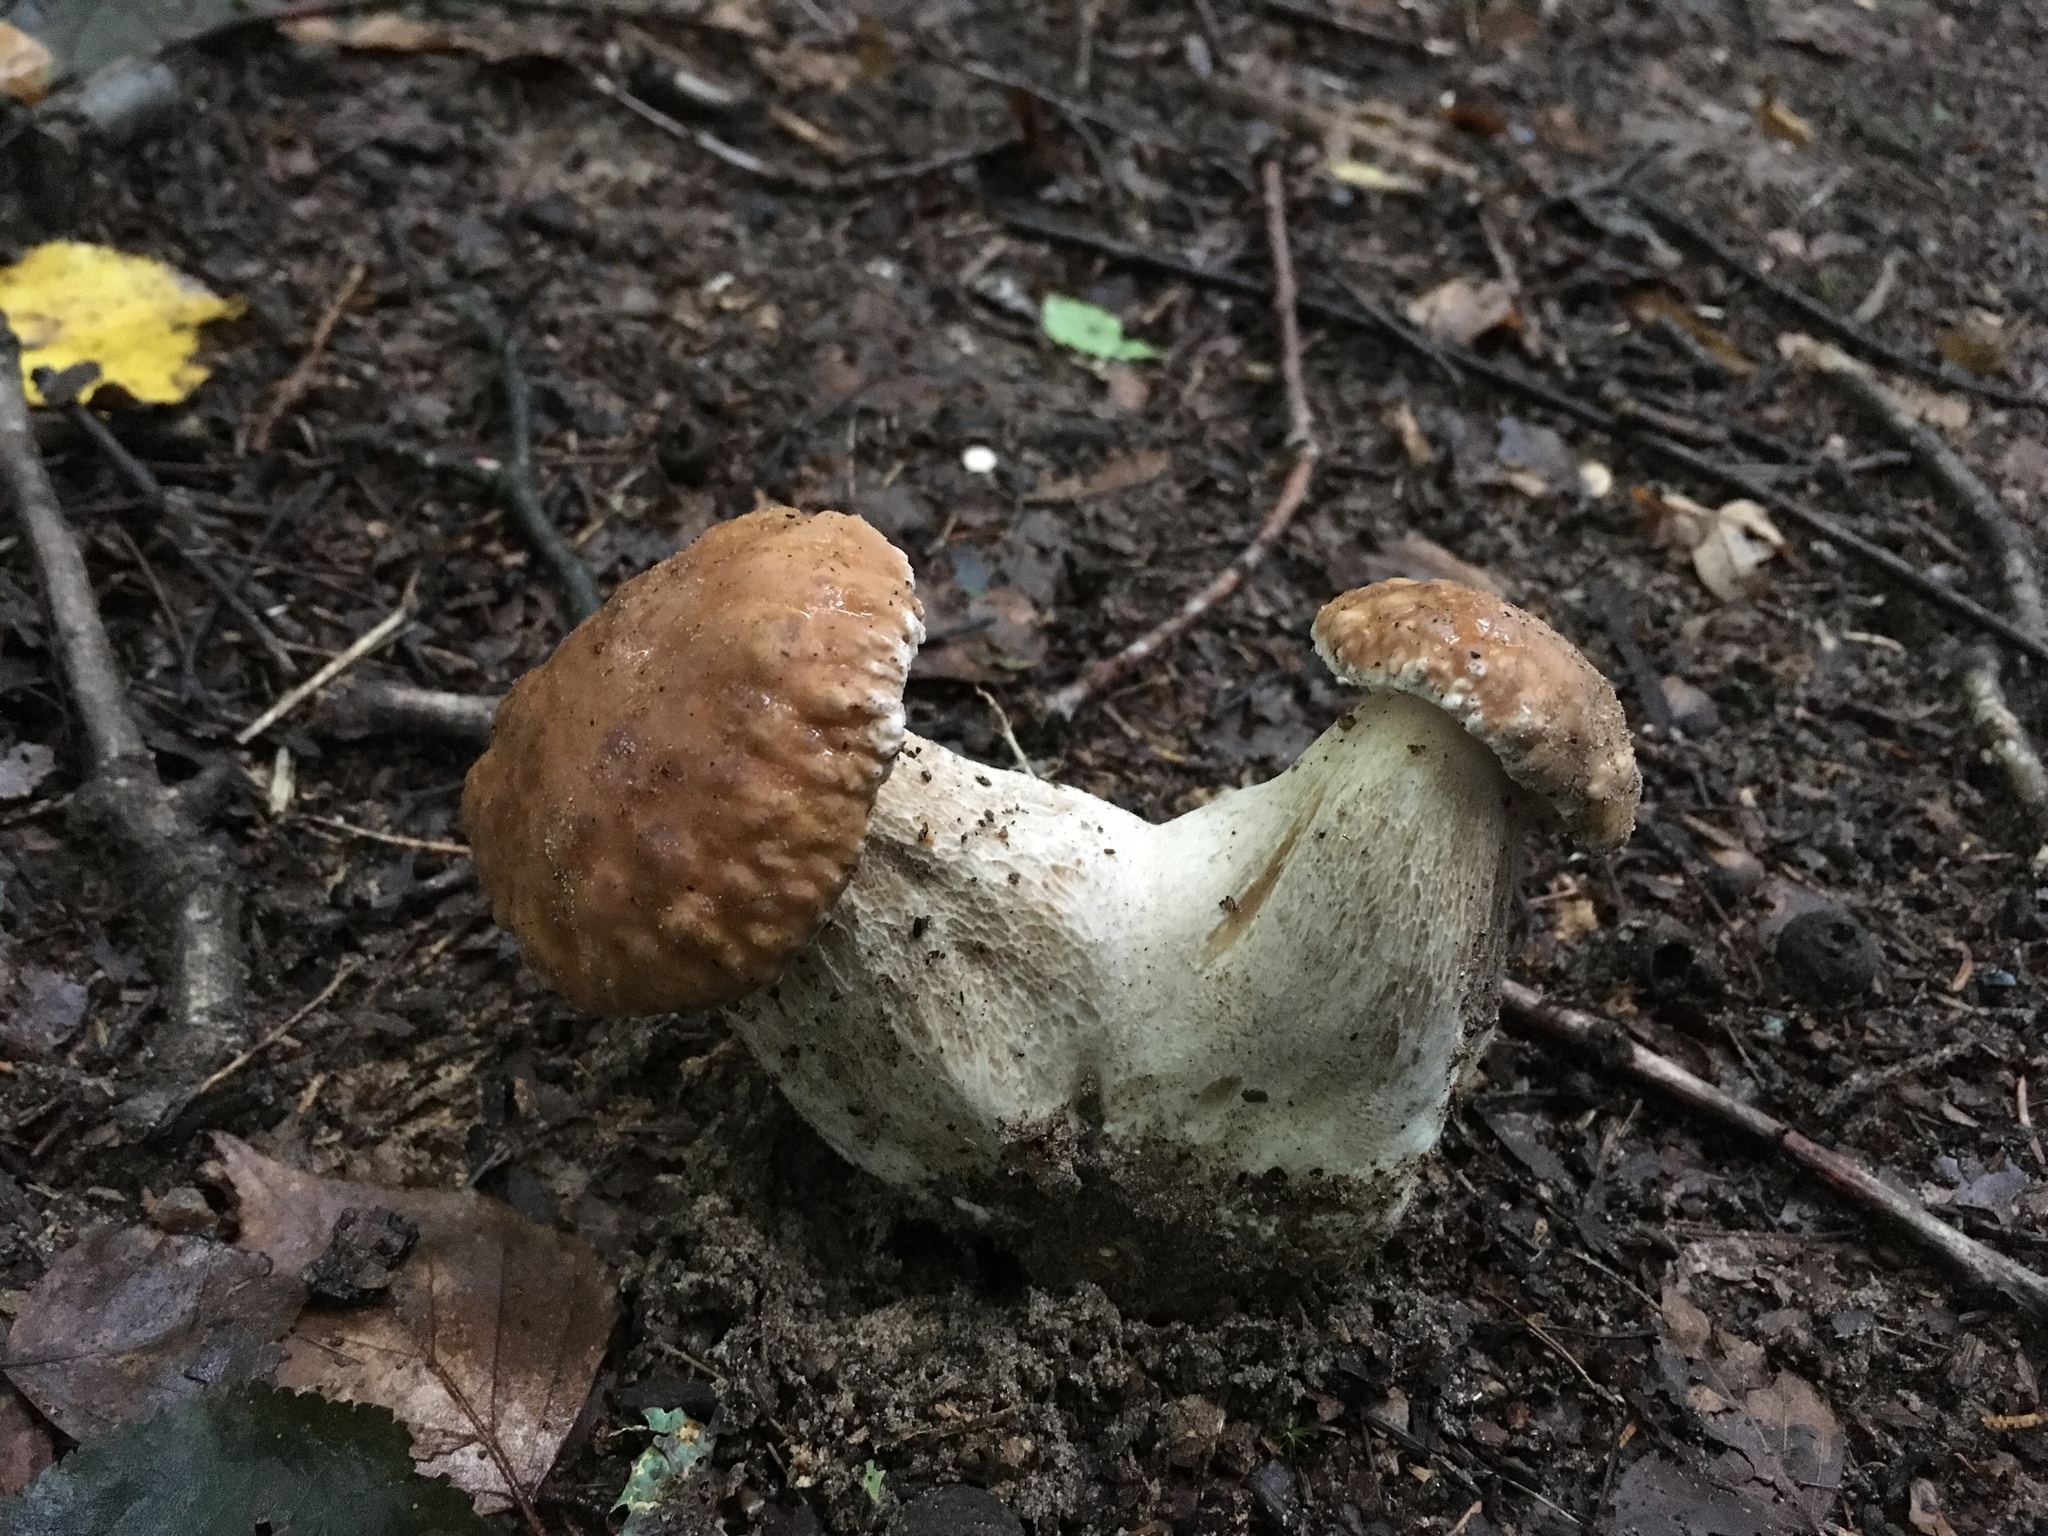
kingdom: Fungi
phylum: Basidiomycota
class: Agaricomycetes
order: Boletales
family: Boletaceae
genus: Boletus
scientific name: Boletus edulis
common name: Cep
